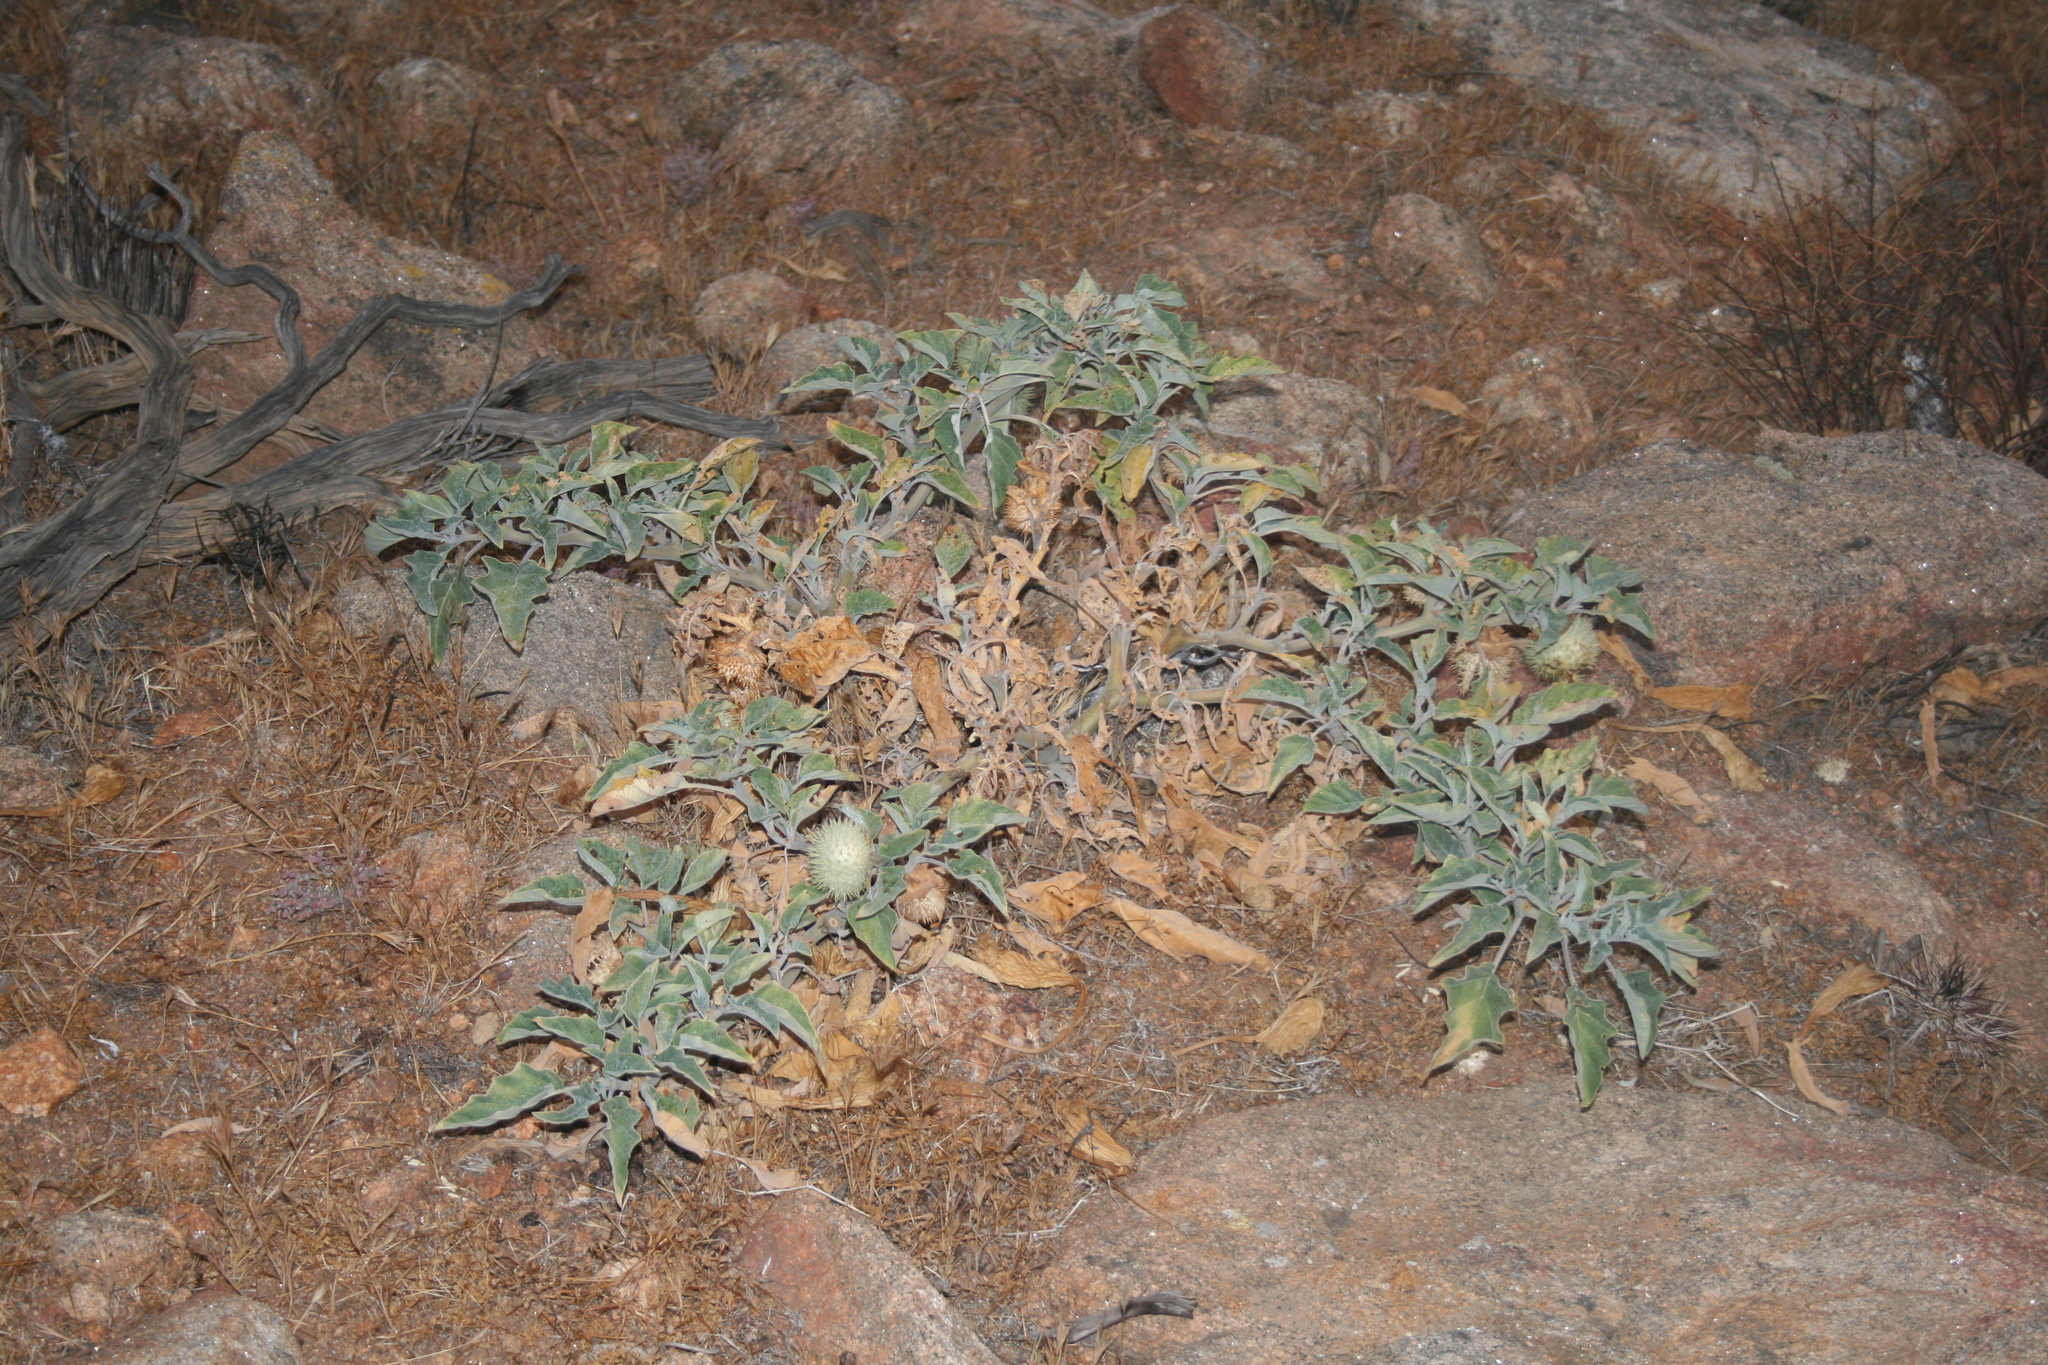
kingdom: Plantae
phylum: Tracheophyta
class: Magnoliopsida
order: Solanales
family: Solanaceae
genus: Datura
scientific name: Datura wrightii
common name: Sacred thorn-apple
